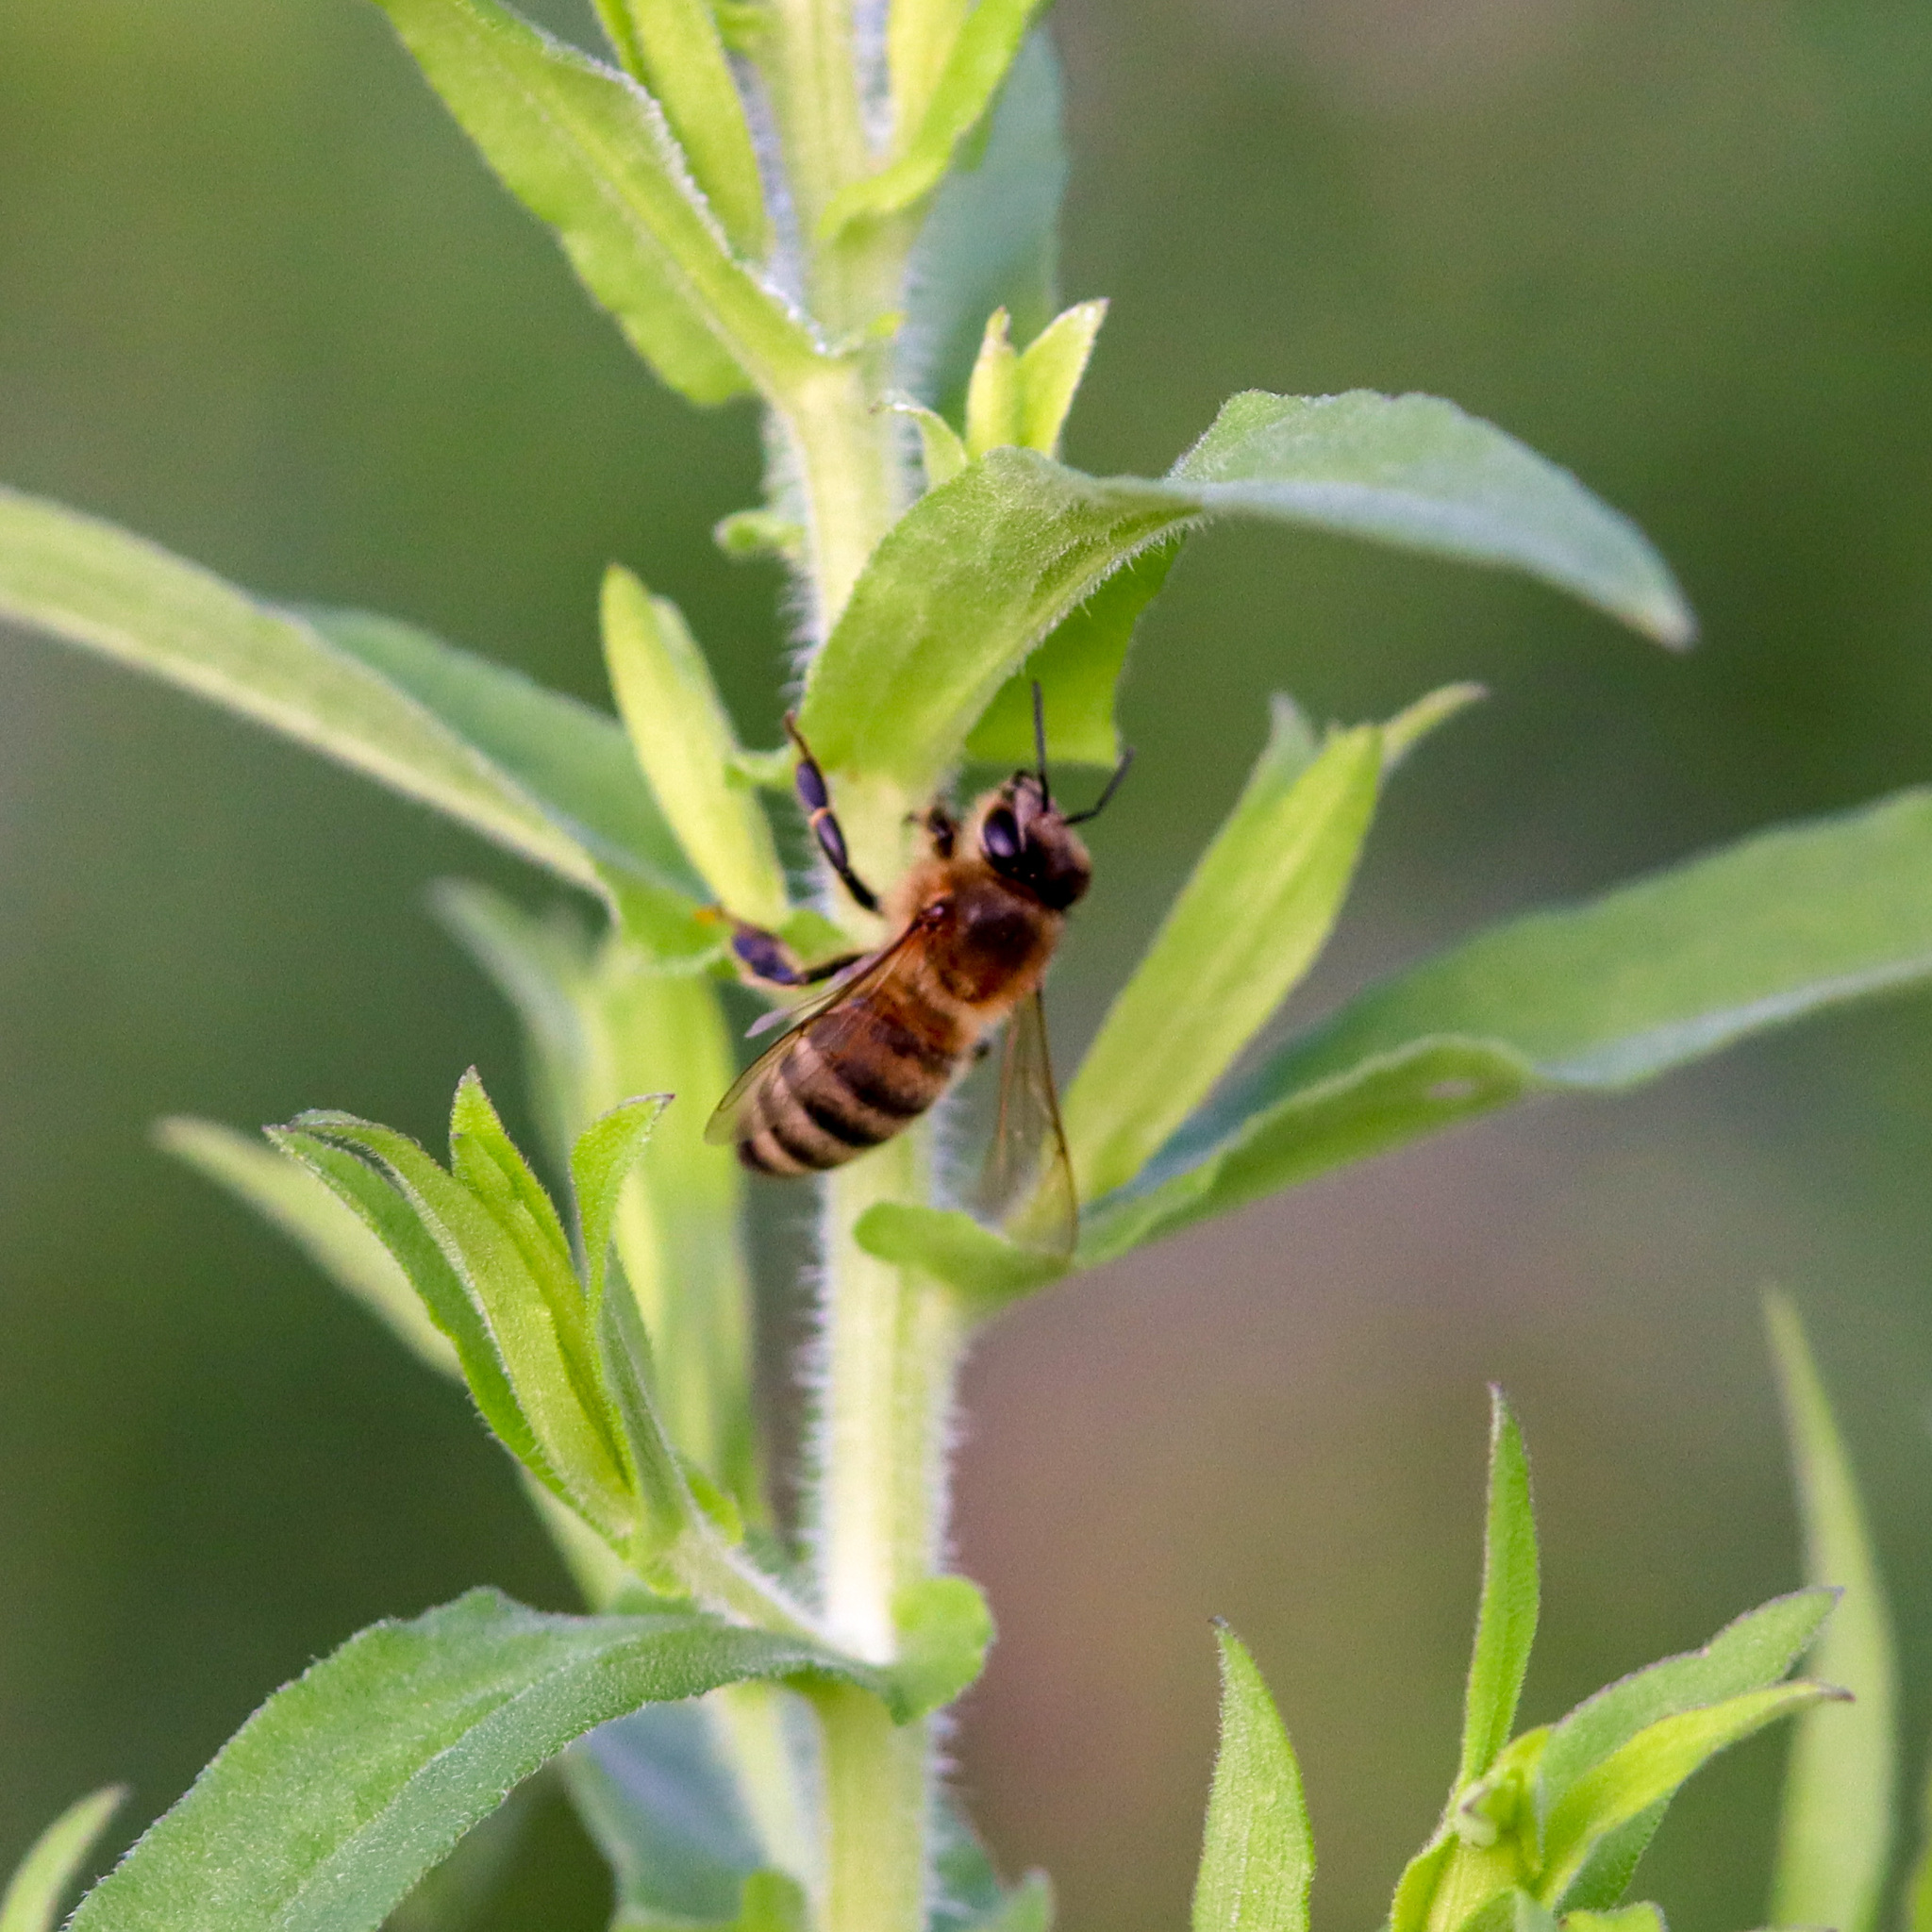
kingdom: Animalia
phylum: Arthropoda
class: Insecta
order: Hymenoptera
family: Apidae
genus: Apis
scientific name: Apis mellifera
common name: Honey bee
